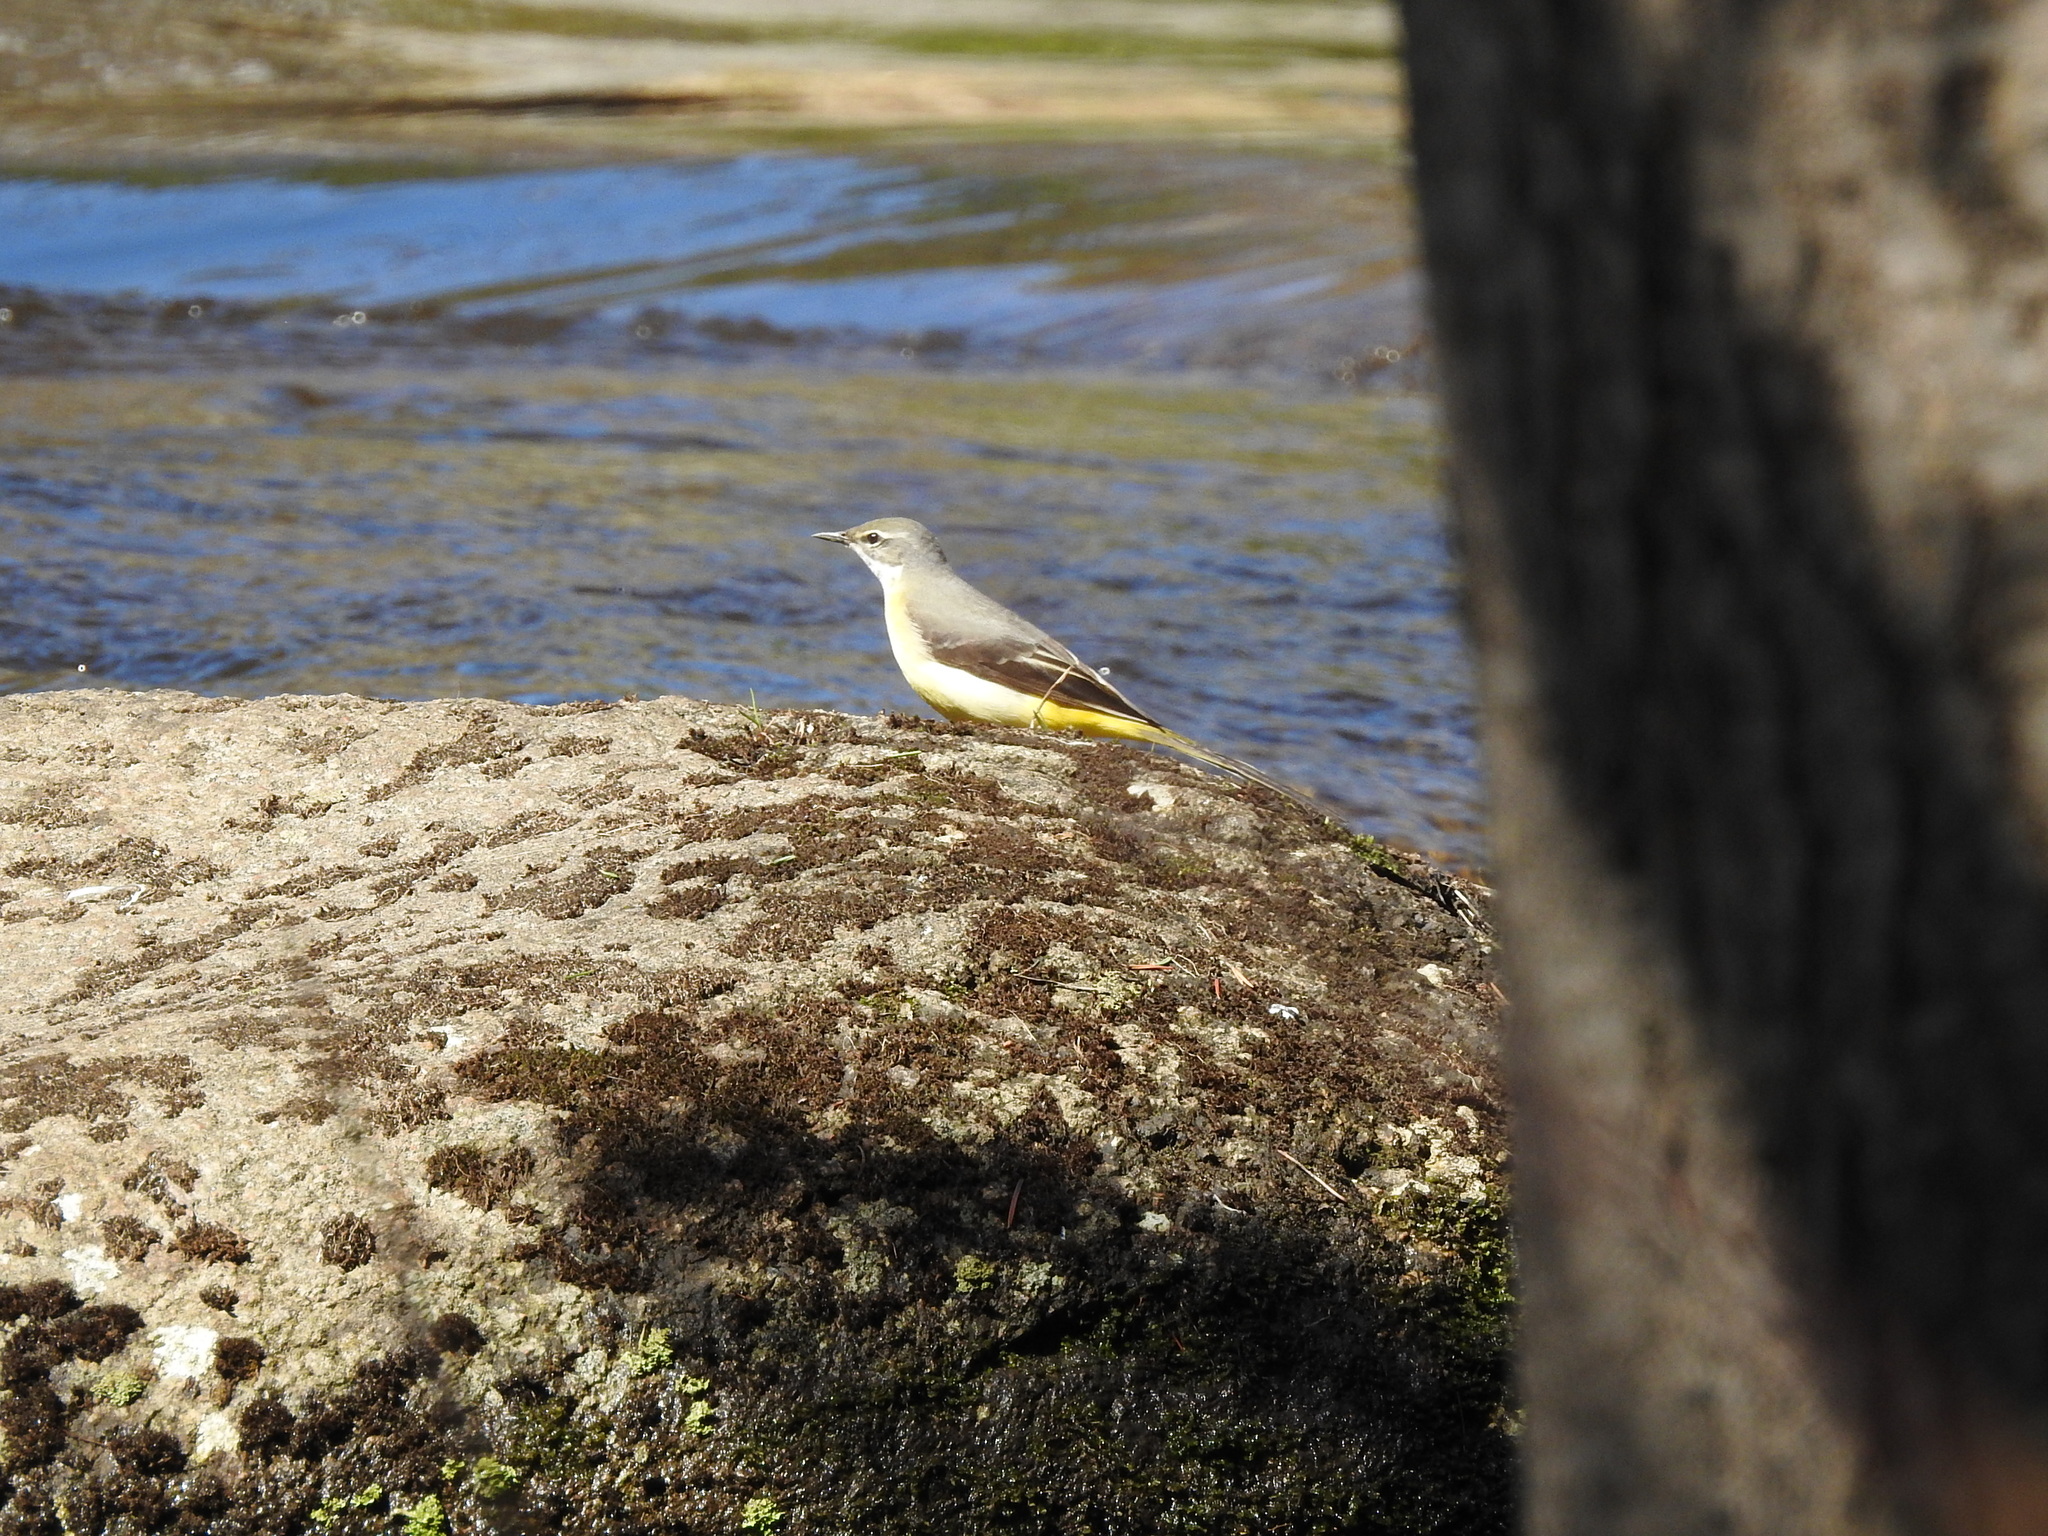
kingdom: Animalia
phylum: Chordata
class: Aves
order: Passeriformes
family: Motacillidae
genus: Motacilla
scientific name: Motacilla cinerea
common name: Grey wagtail
